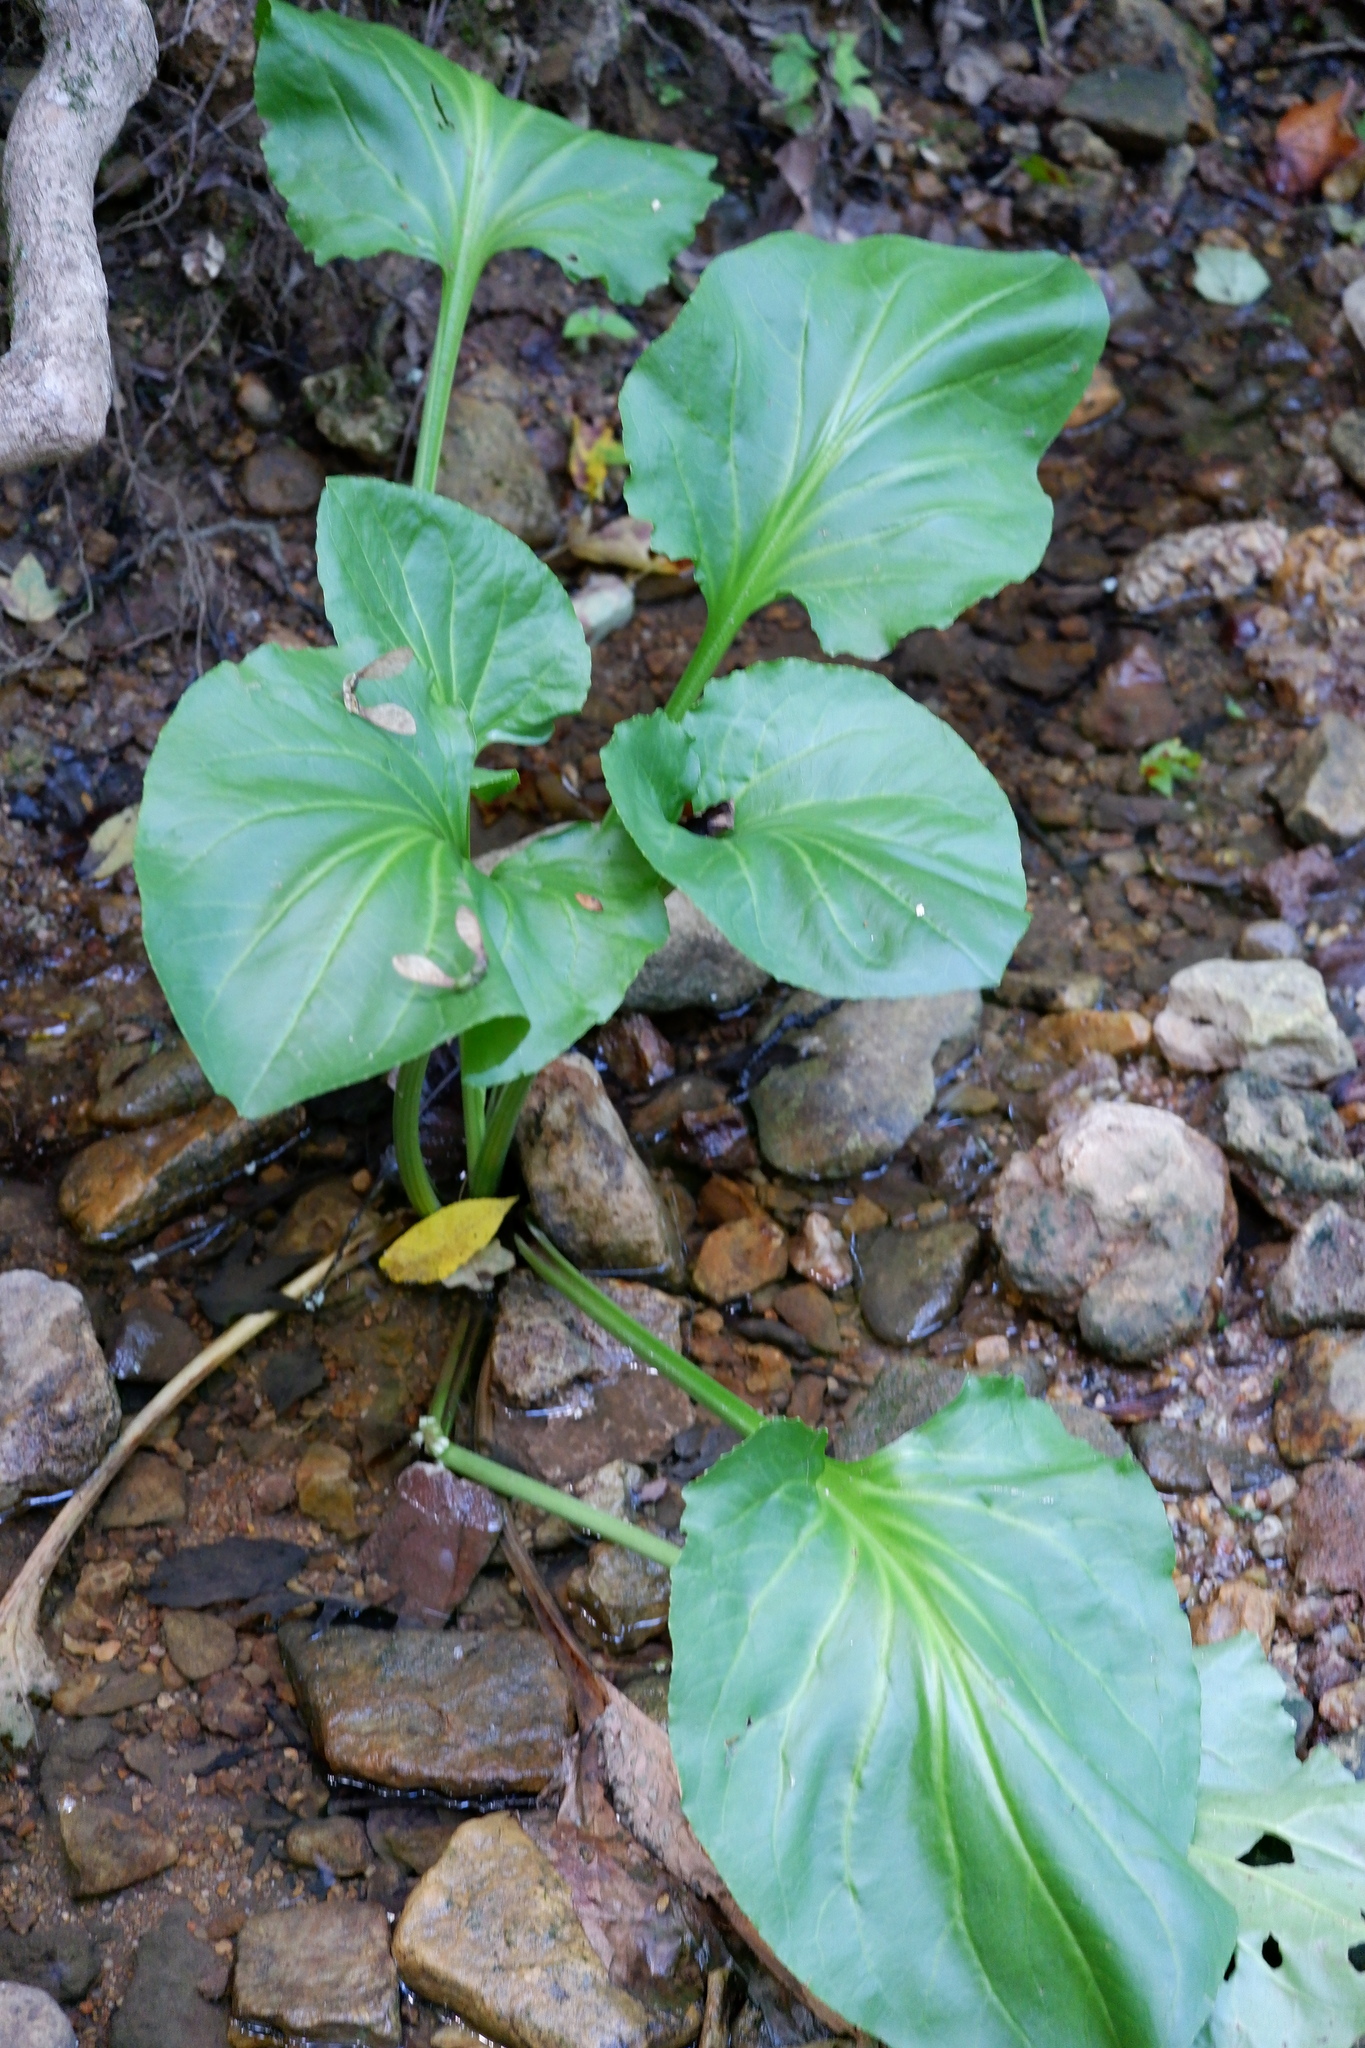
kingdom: Plantae
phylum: Tracheophyta
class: Magnoliopsida
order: Lamiales
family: Plantaginaceae
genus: Plantago
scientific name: Plantago cordata
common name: Kingroot
